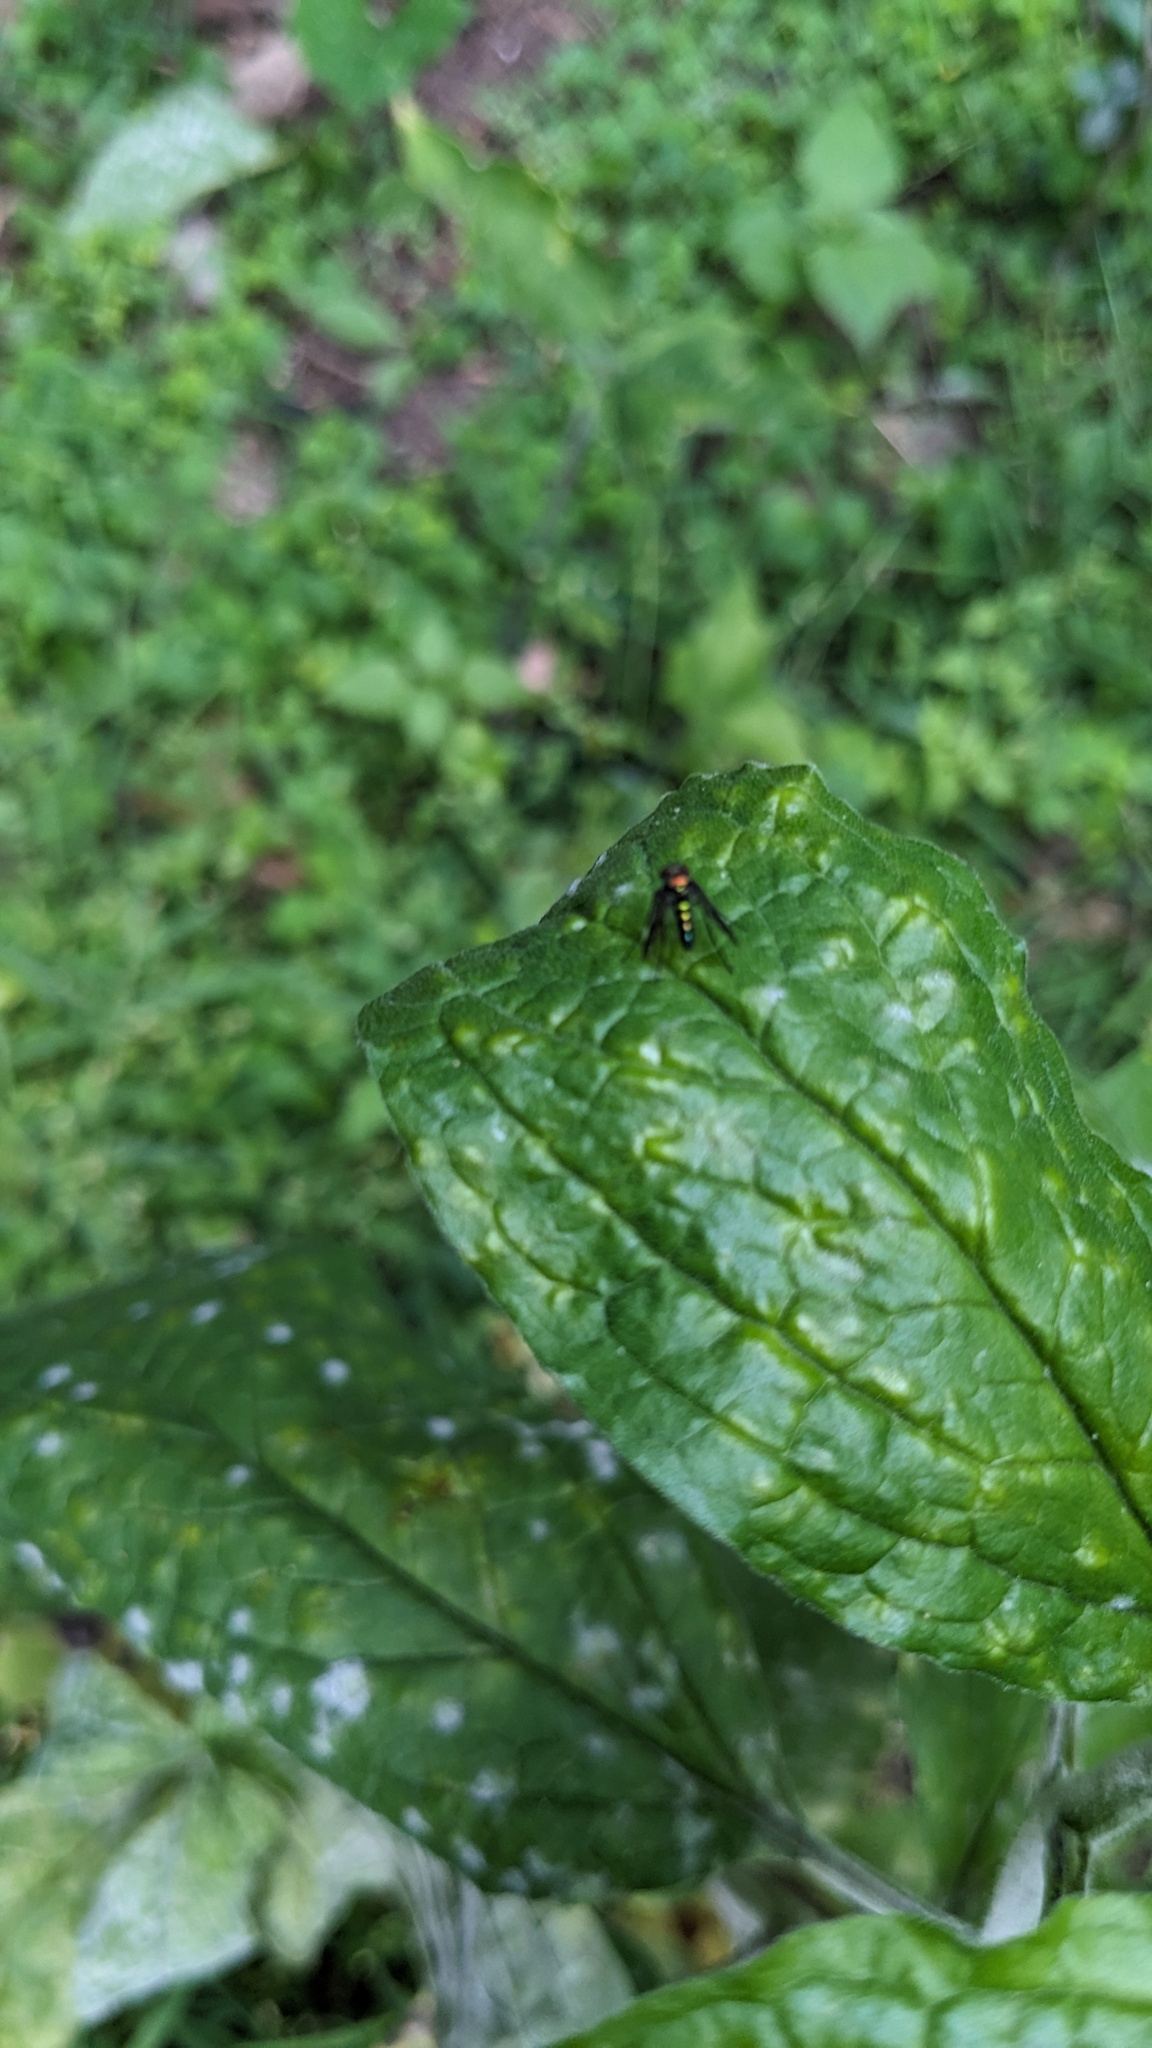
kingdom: Animalia
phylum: Arthropoda
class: Insecta
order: Diptera
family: Dolichopodidae
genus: Condylostylus
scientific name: Condylostylus patibulatus
